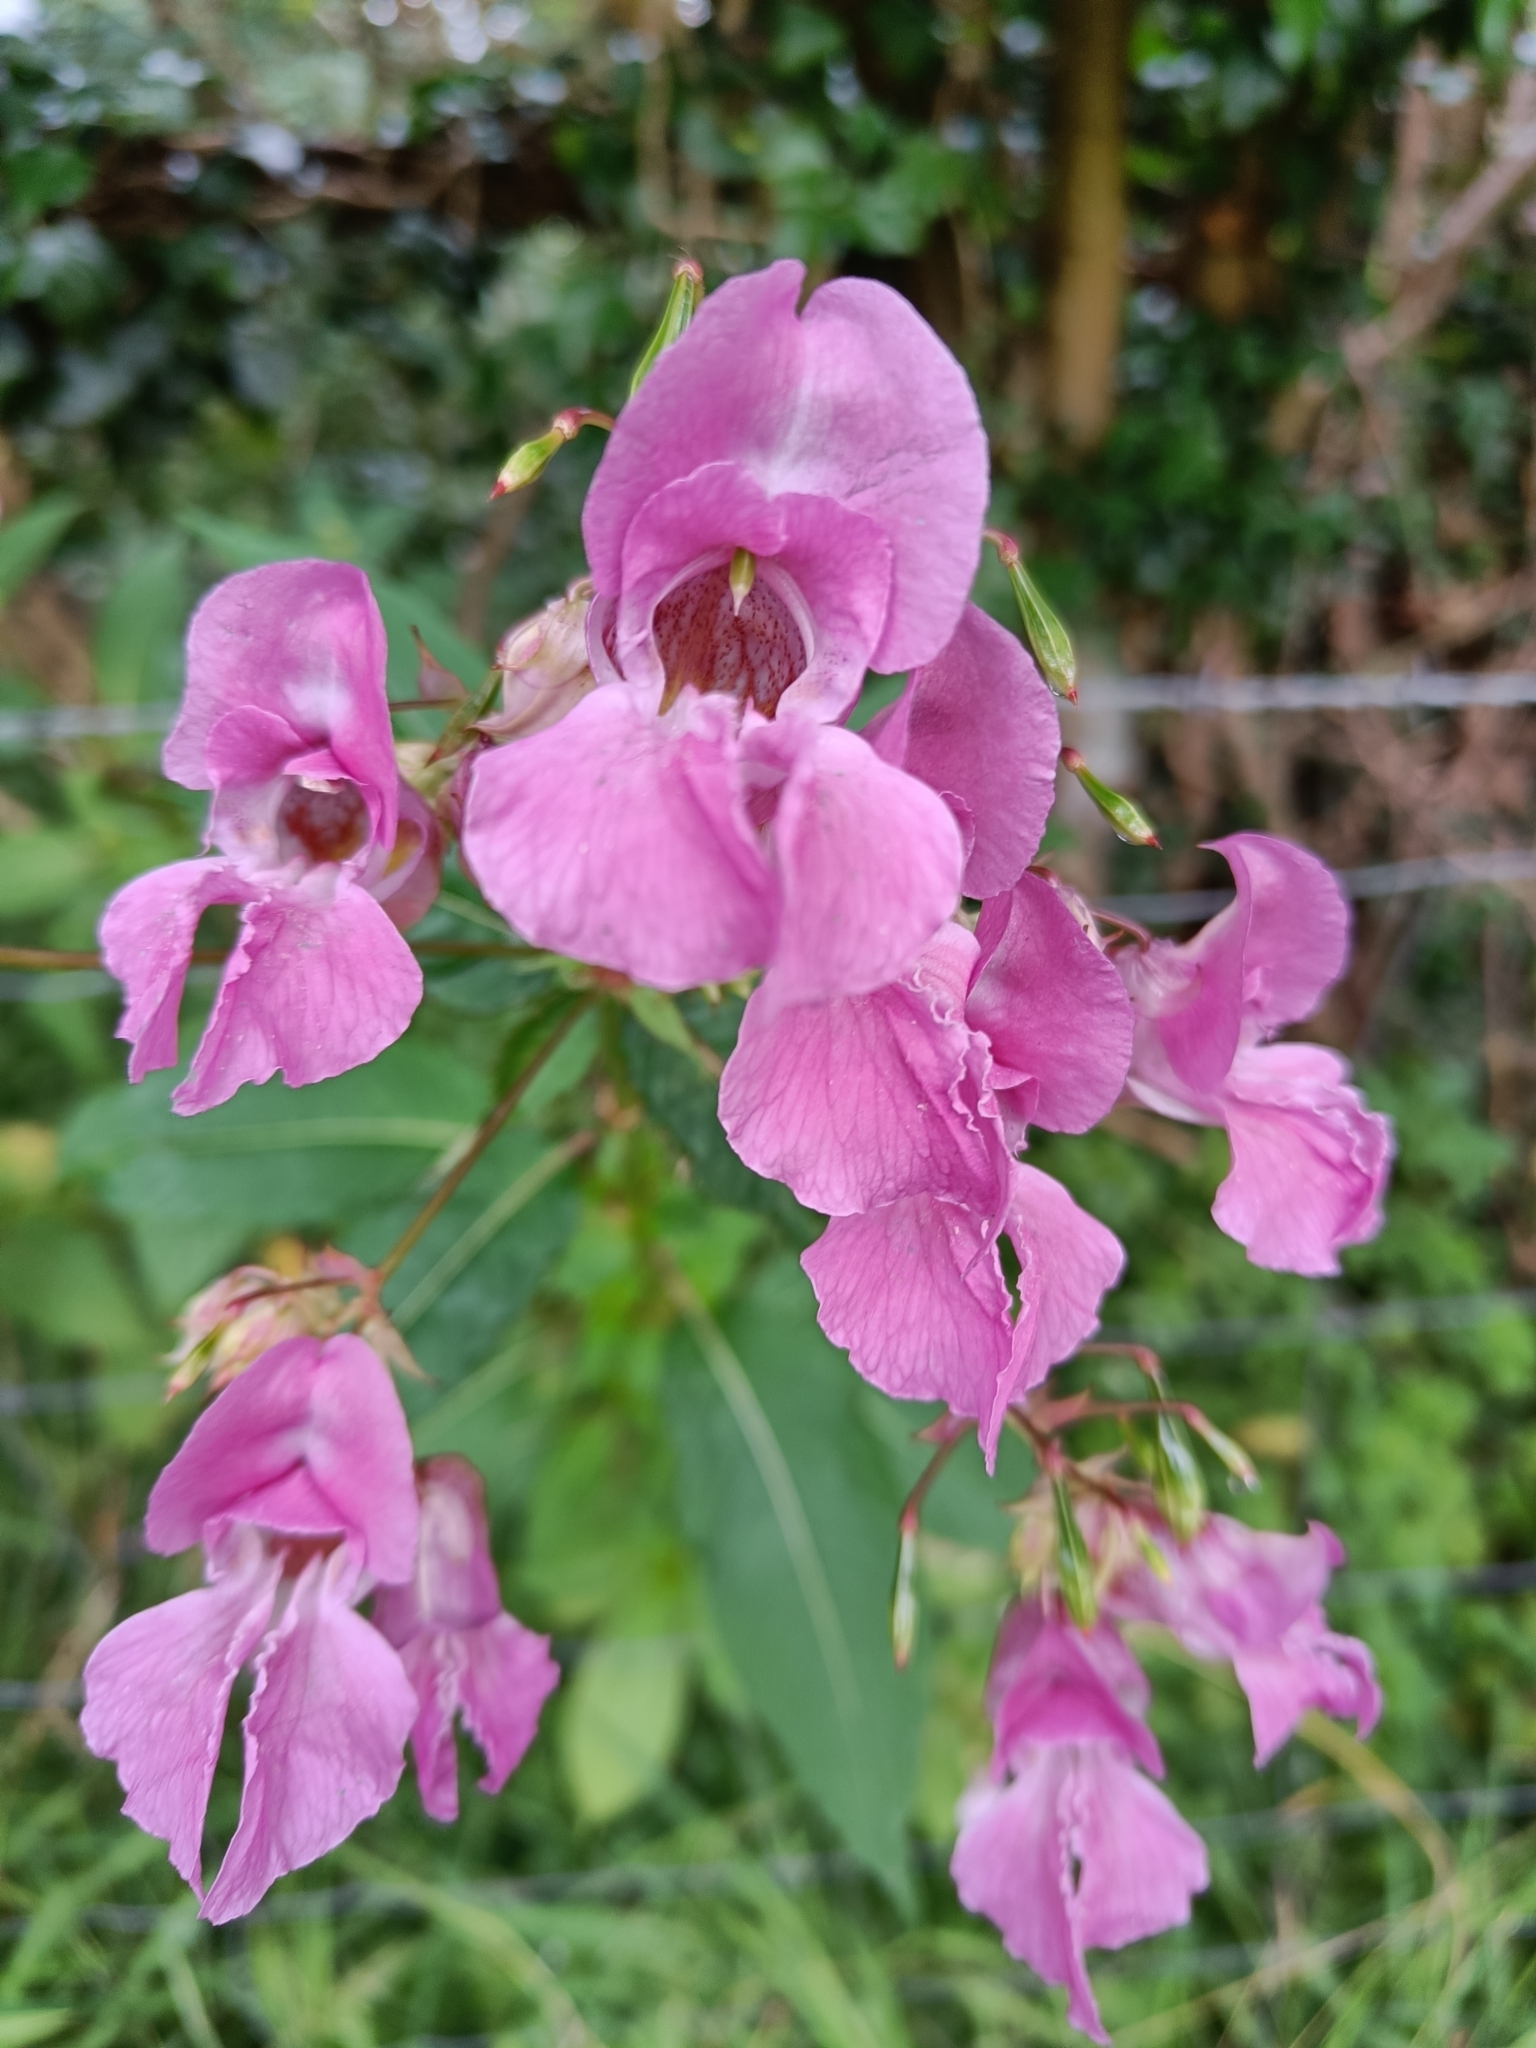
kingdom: Plantae
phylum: Tracheophyta
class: Magnoliopsida
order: Ericales
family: Balsaminaceae
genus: Impatiens
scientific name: Impatiens glandulifera
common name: Himalayan balsam
